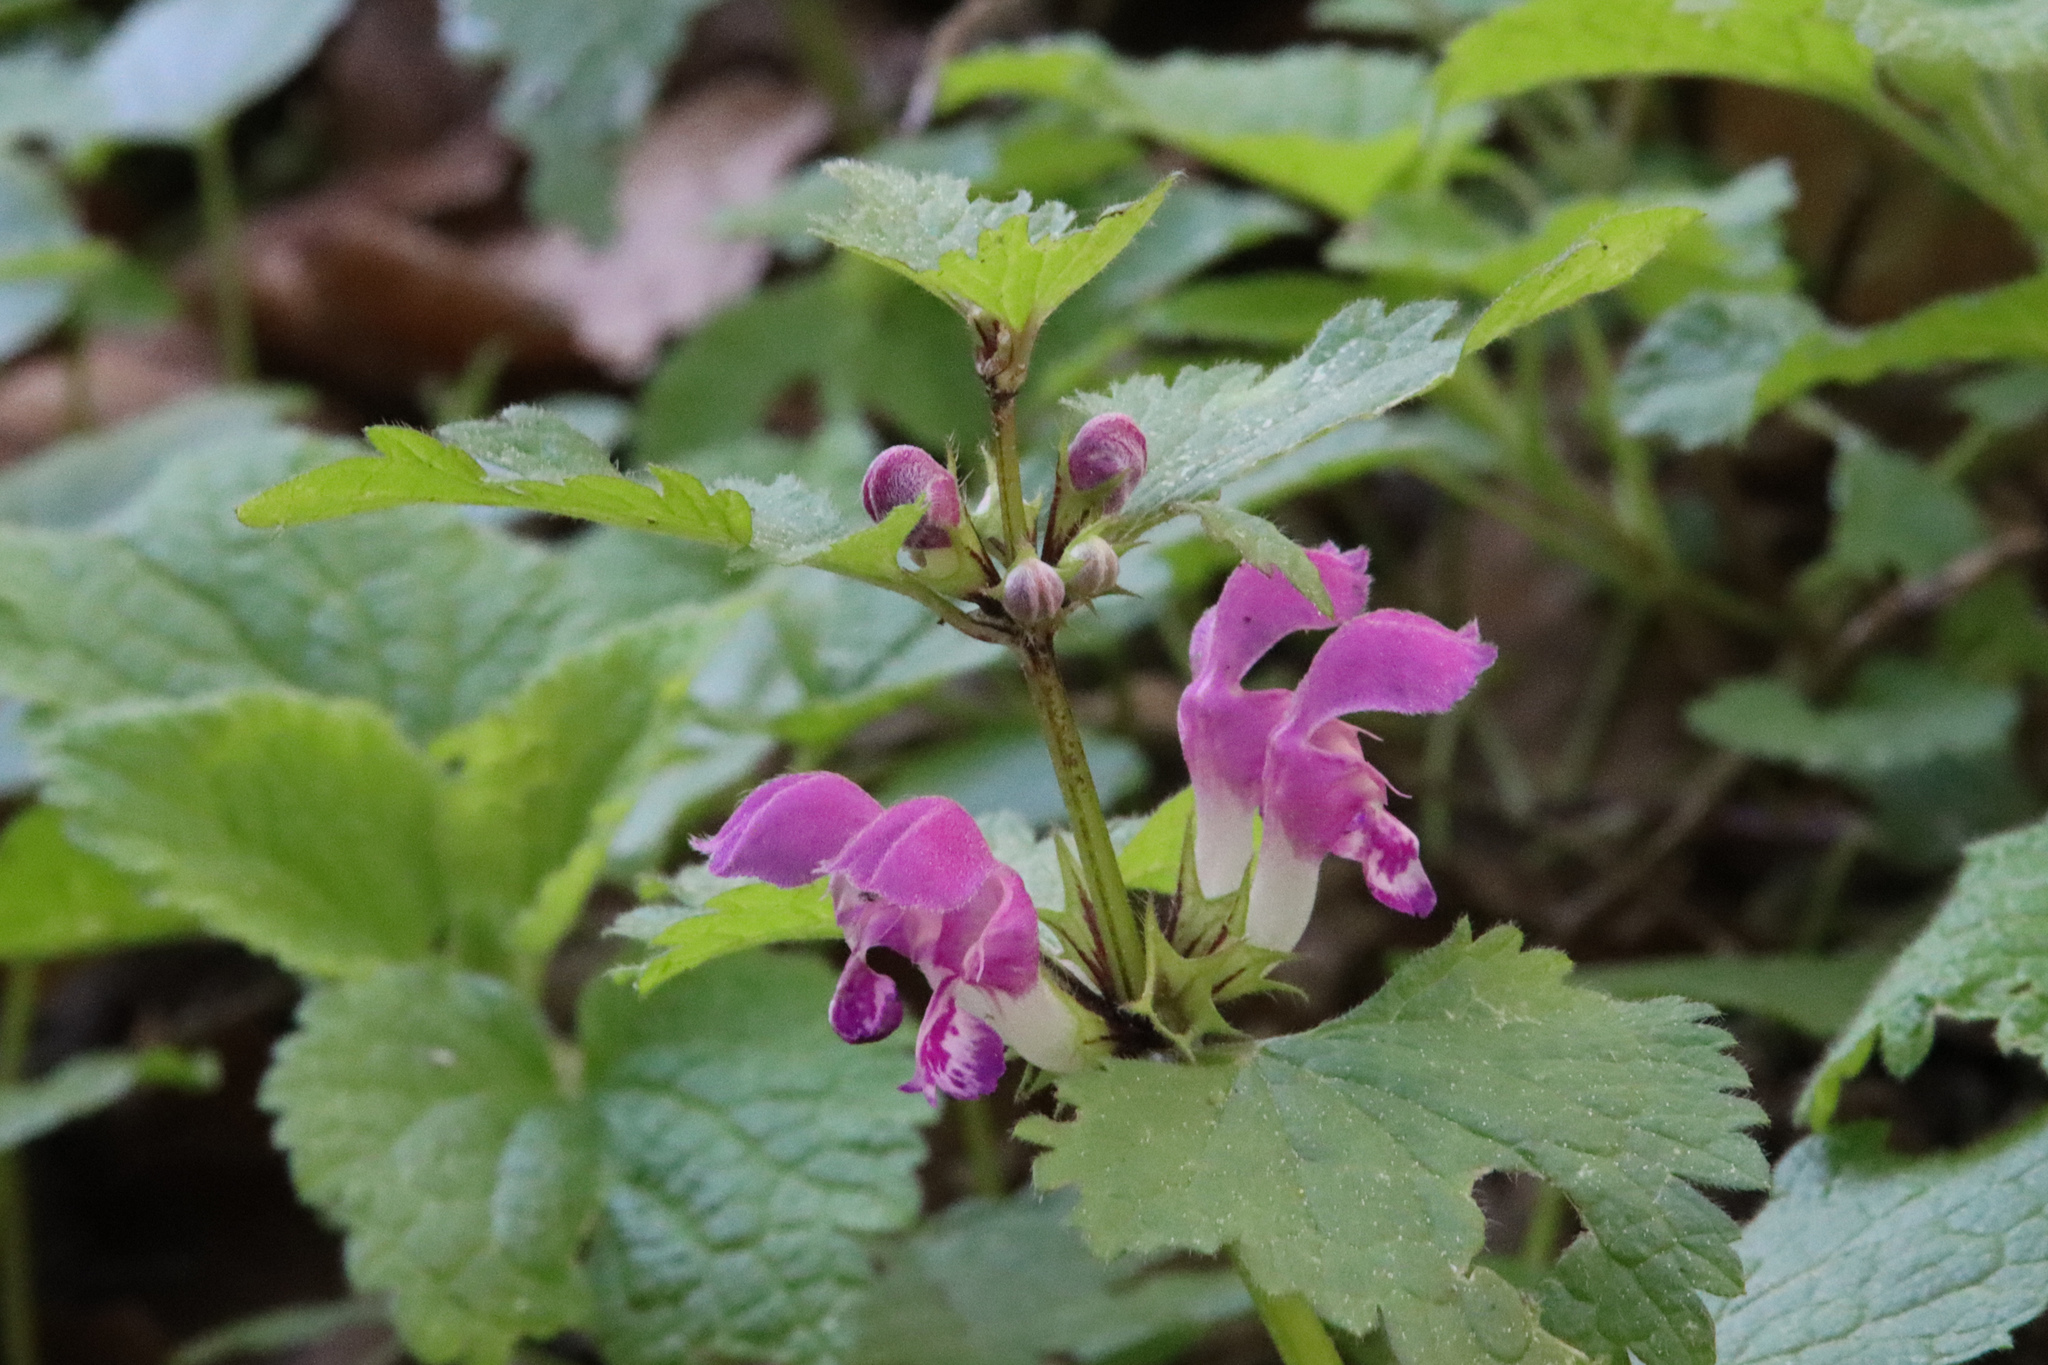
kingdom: Plantae
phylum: Tracheophyta
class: Magnoliopsida
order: Lamiales
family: Lamiaceae
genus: Lamium
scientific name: Lamium maculatum
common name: Spotted dead-nettle
